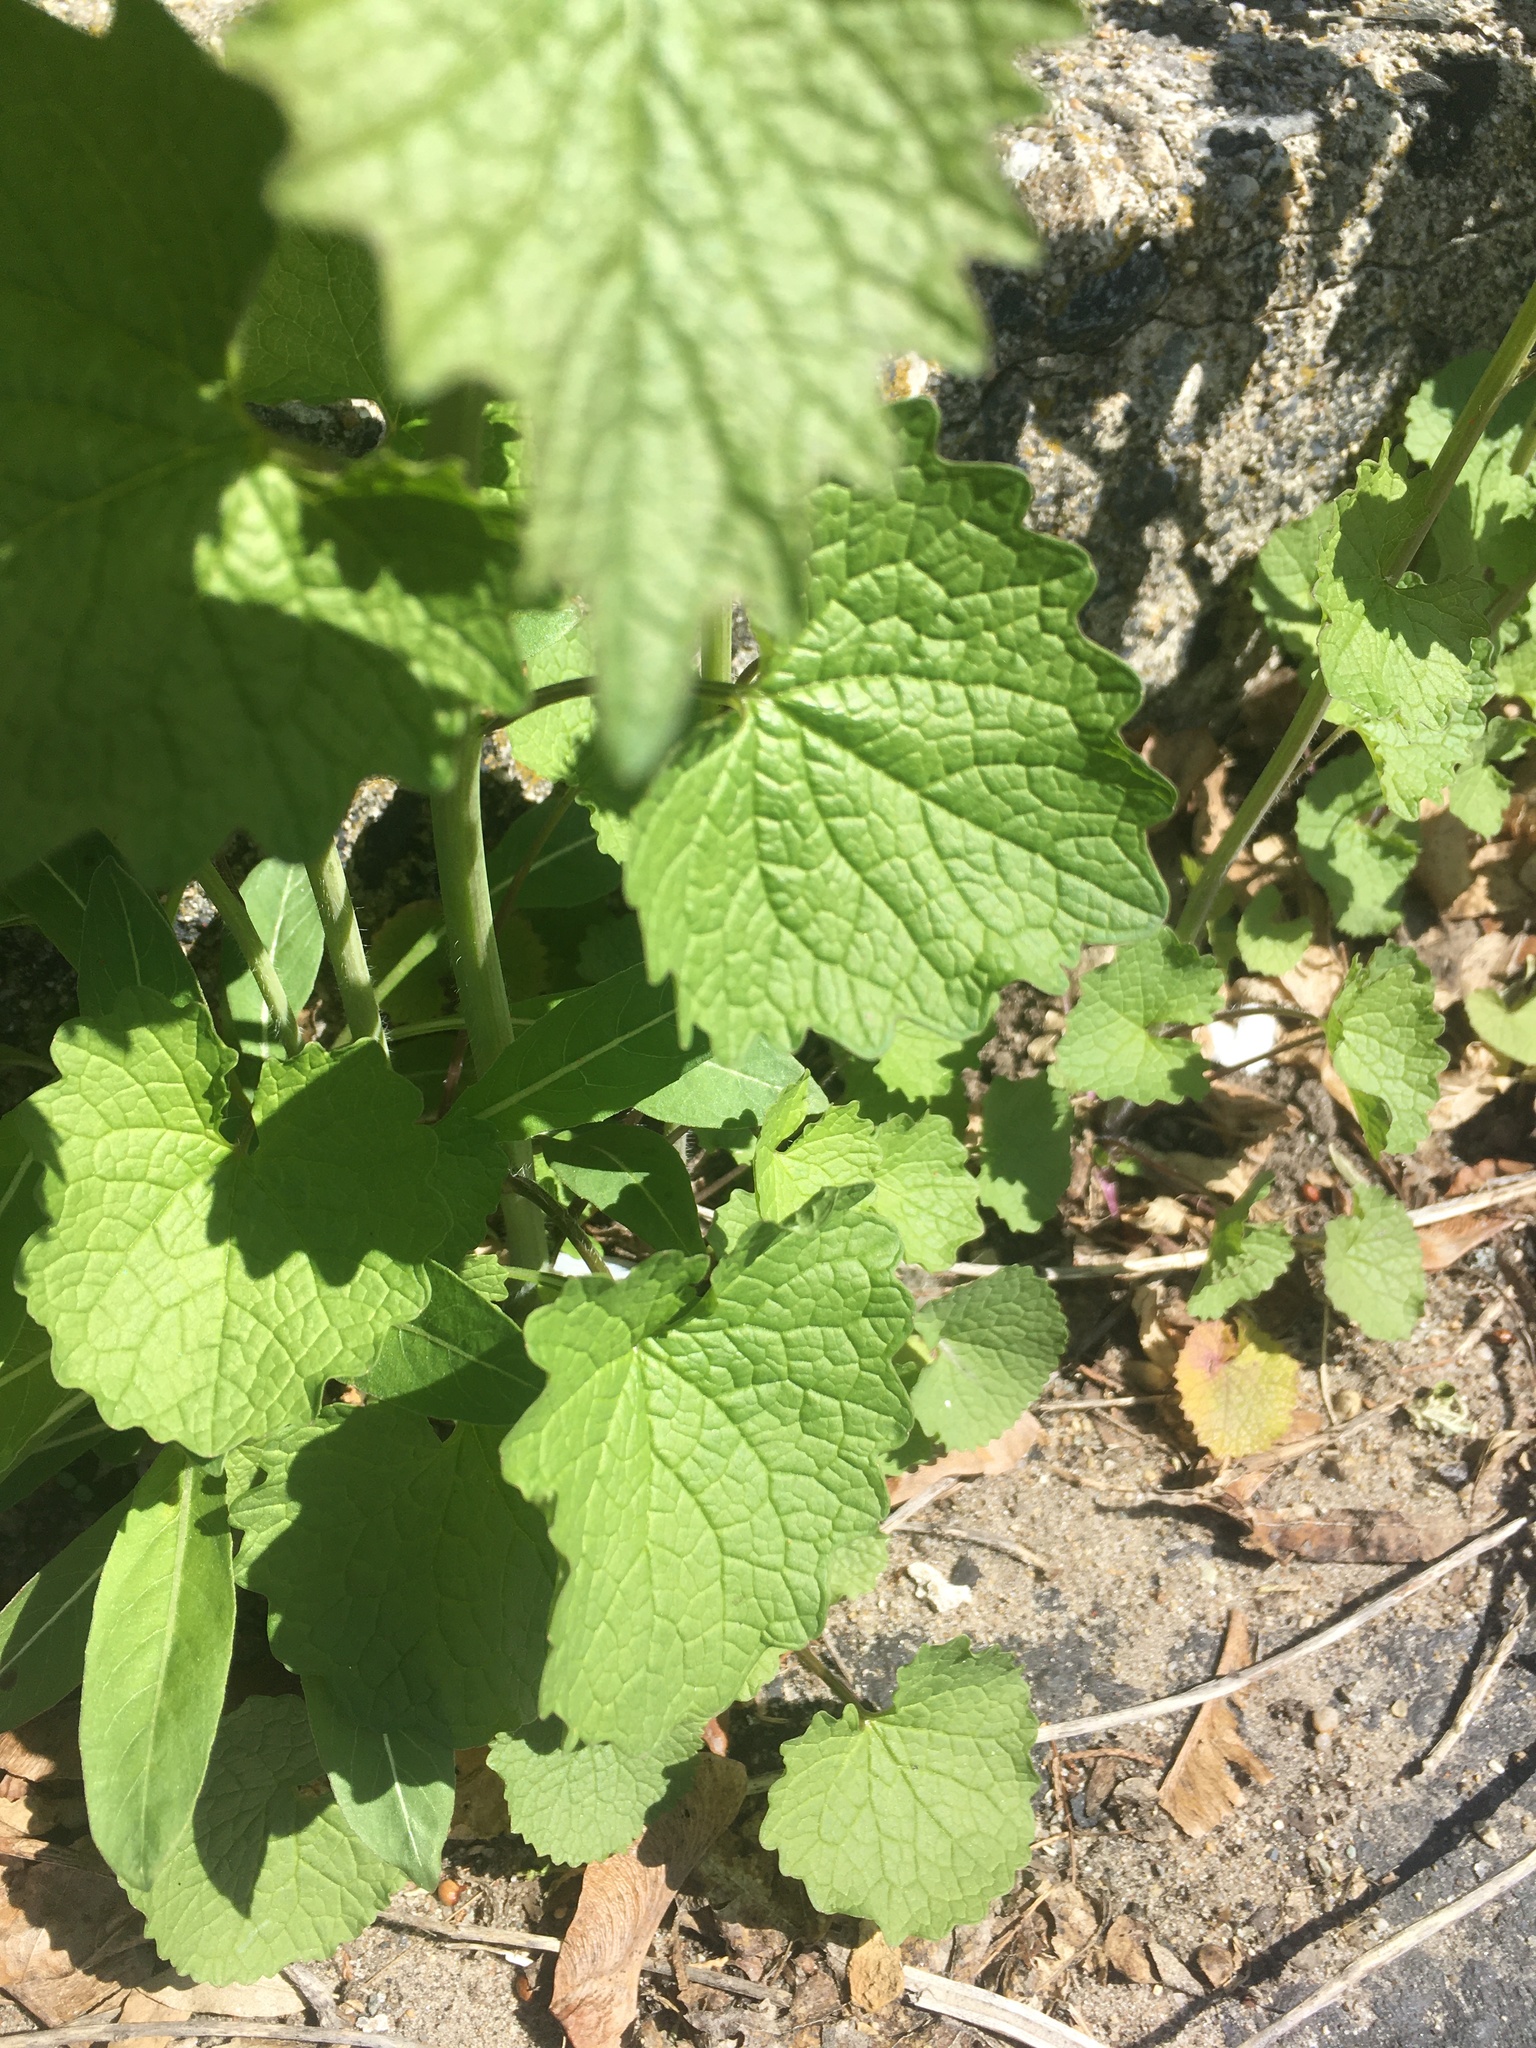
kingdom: Plantae
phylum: Tracheophyta
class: Magnoliopsida
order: Brassicales
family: Brassicaceae
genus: Alliaria
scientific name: Alliaria petiolata
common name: Garlic mustard
